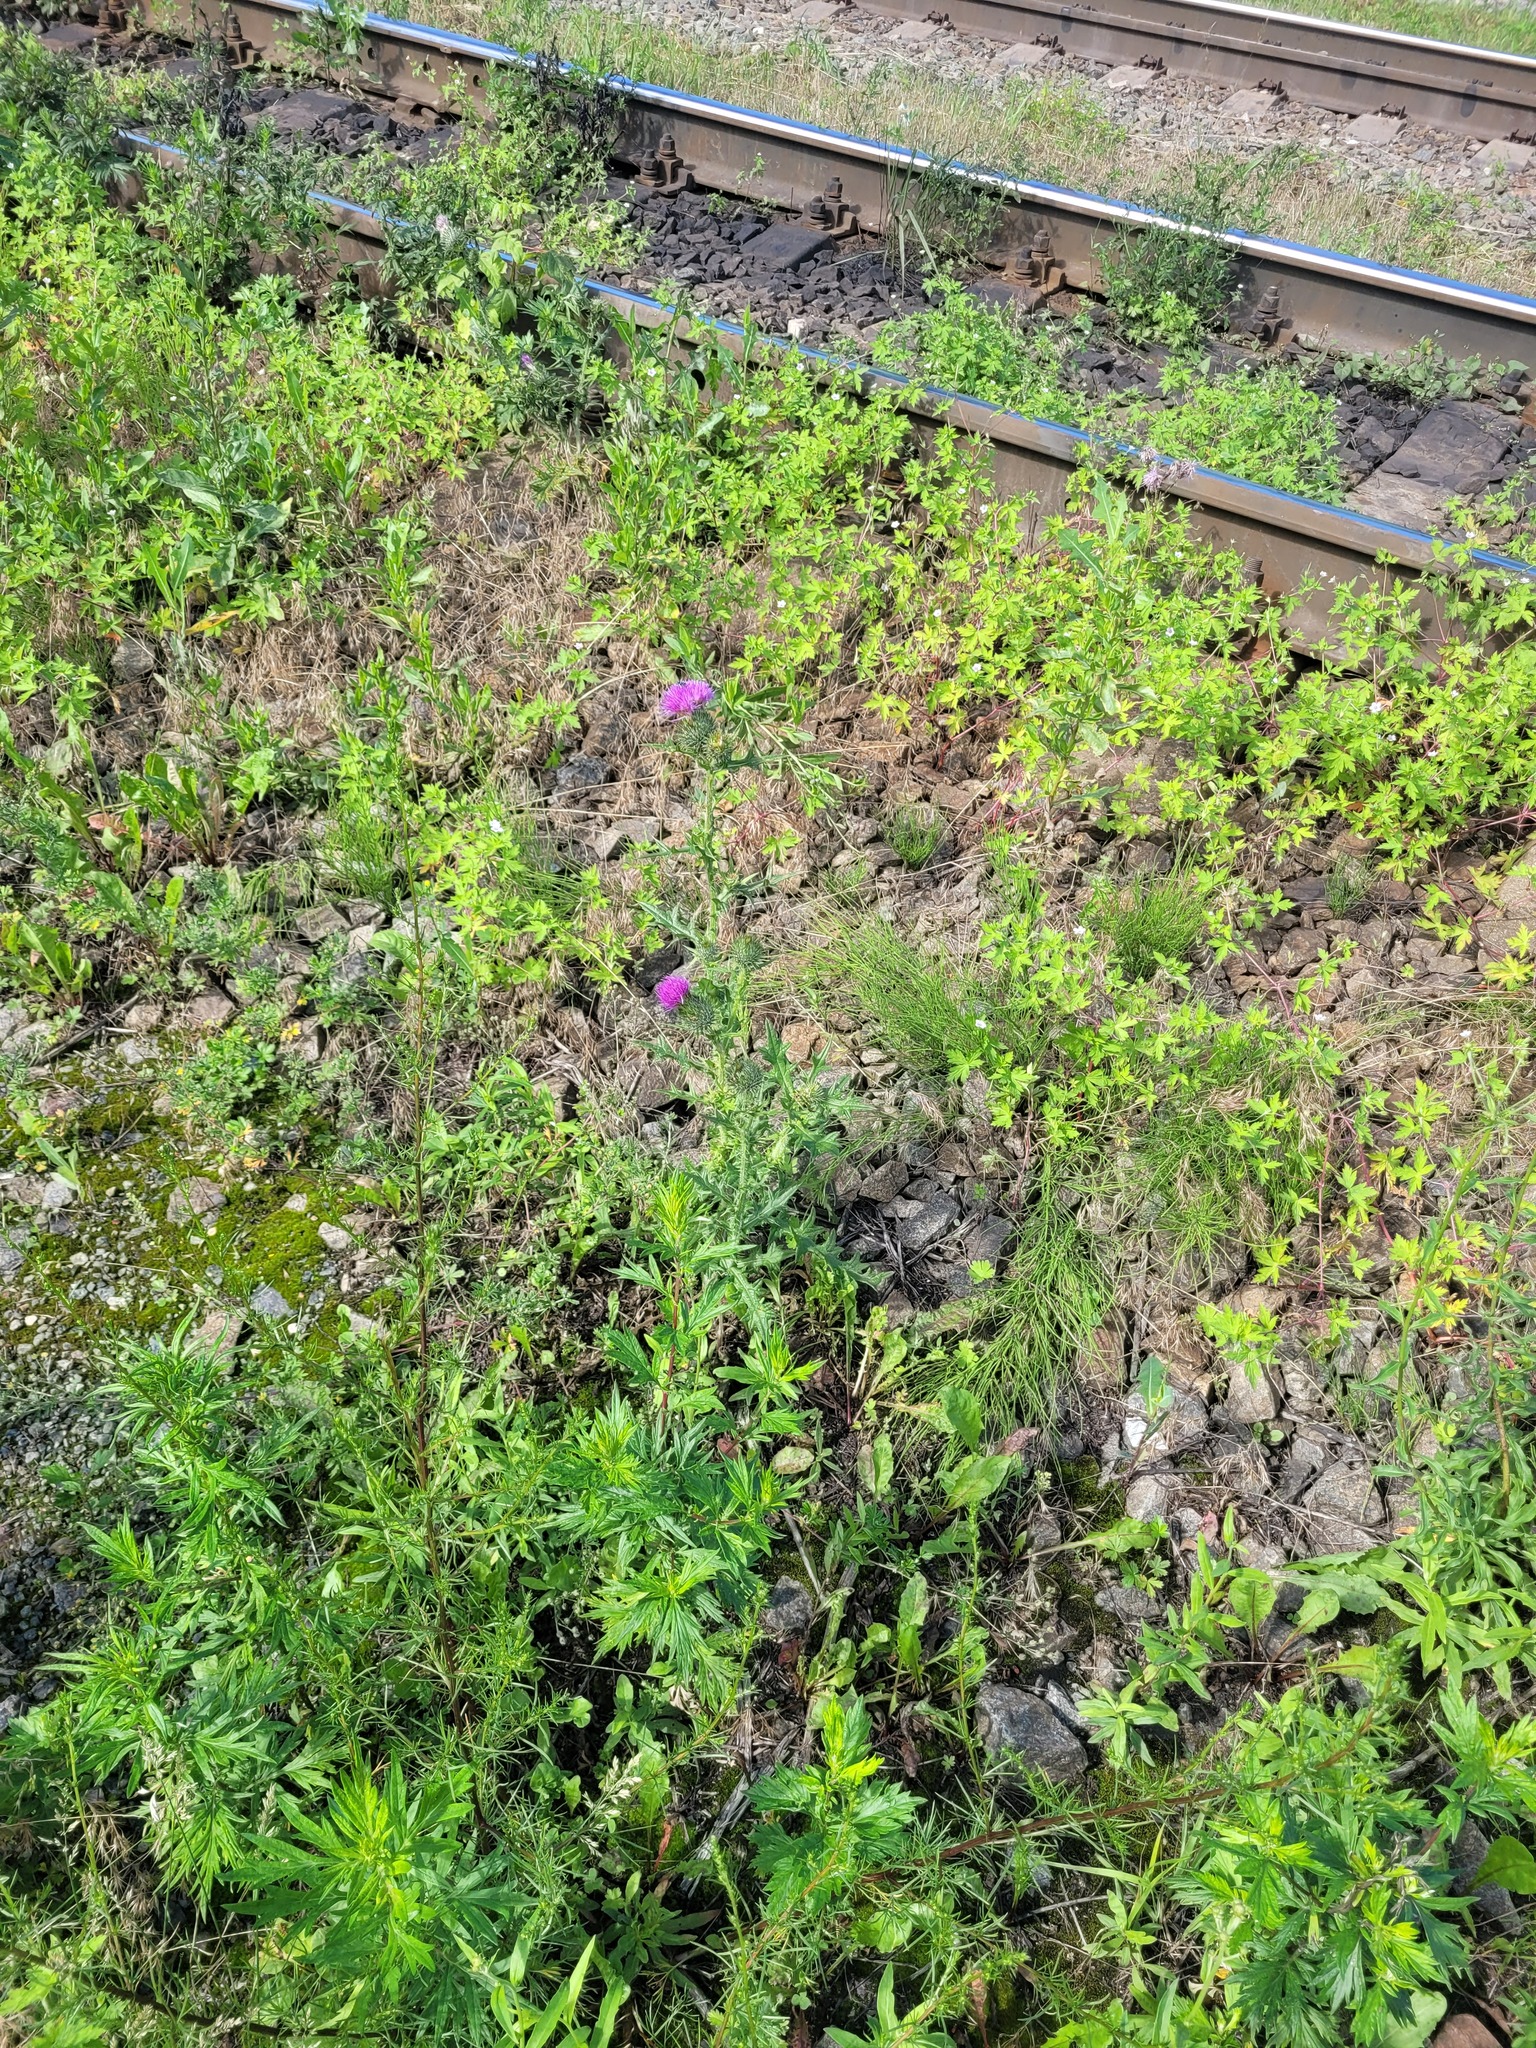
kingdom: Plantae
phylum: Tracheophyta
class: Magnoliopsida
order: Asterales
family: Asteraceae
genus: Cirsium
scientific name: Cirsium vulgare
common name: Bull thistle
